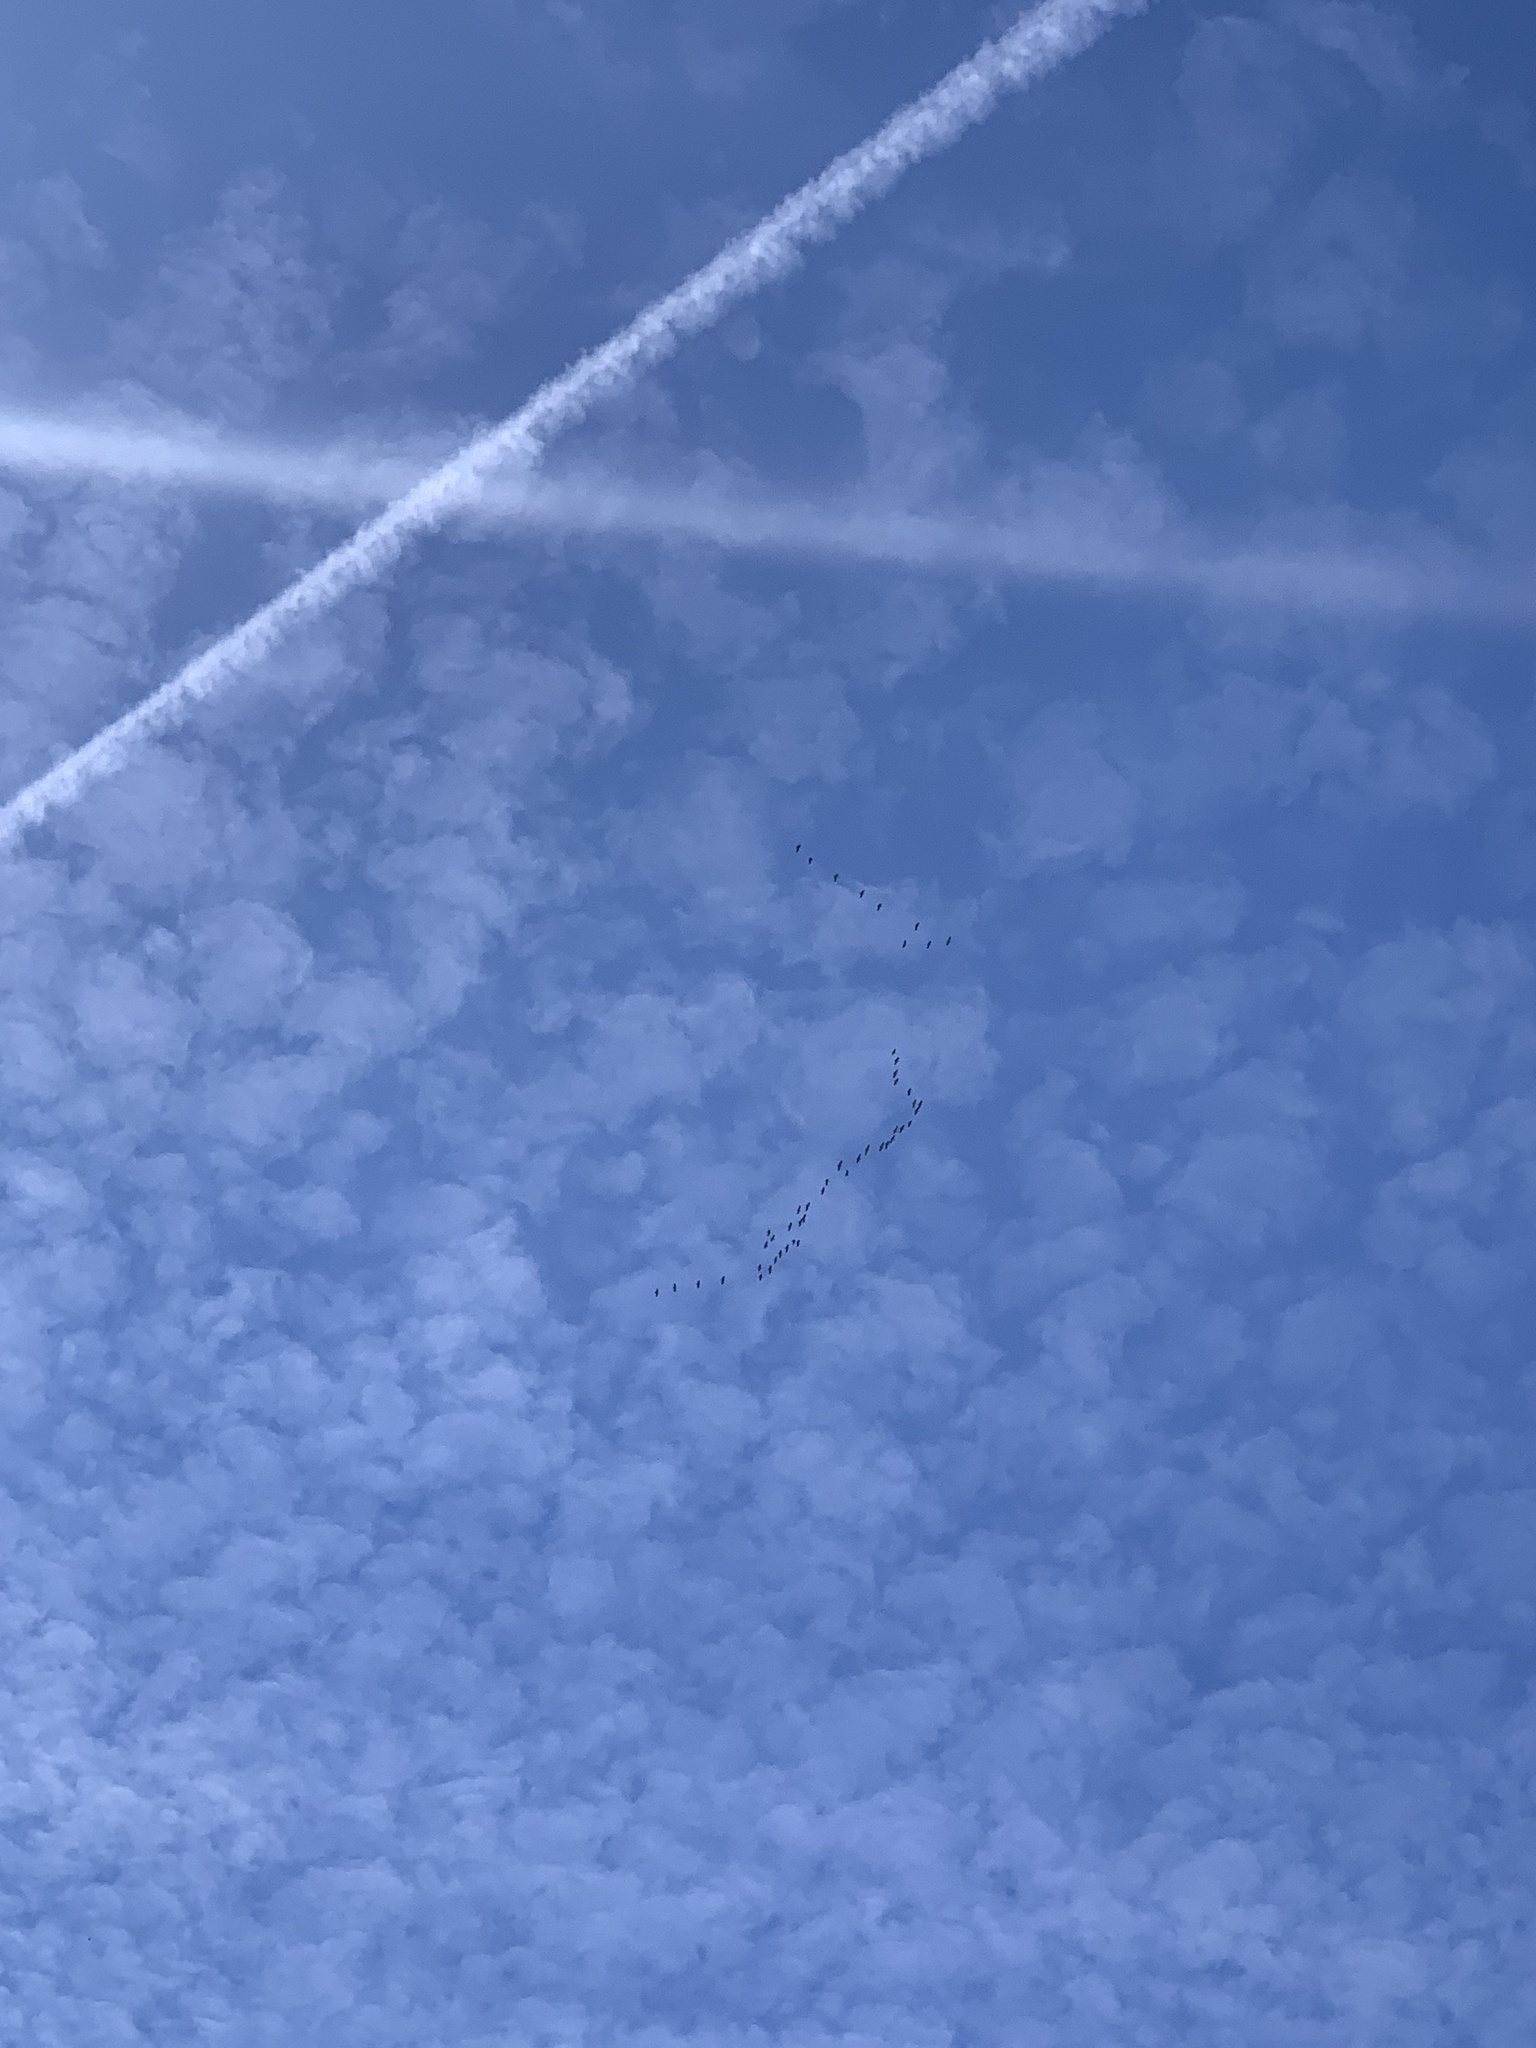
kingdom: Animalia
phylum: Chordata
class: Aves
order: Gruiformes
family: Gruidae
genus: Grus
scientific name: Grus canadensis
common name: Sandhill crane
